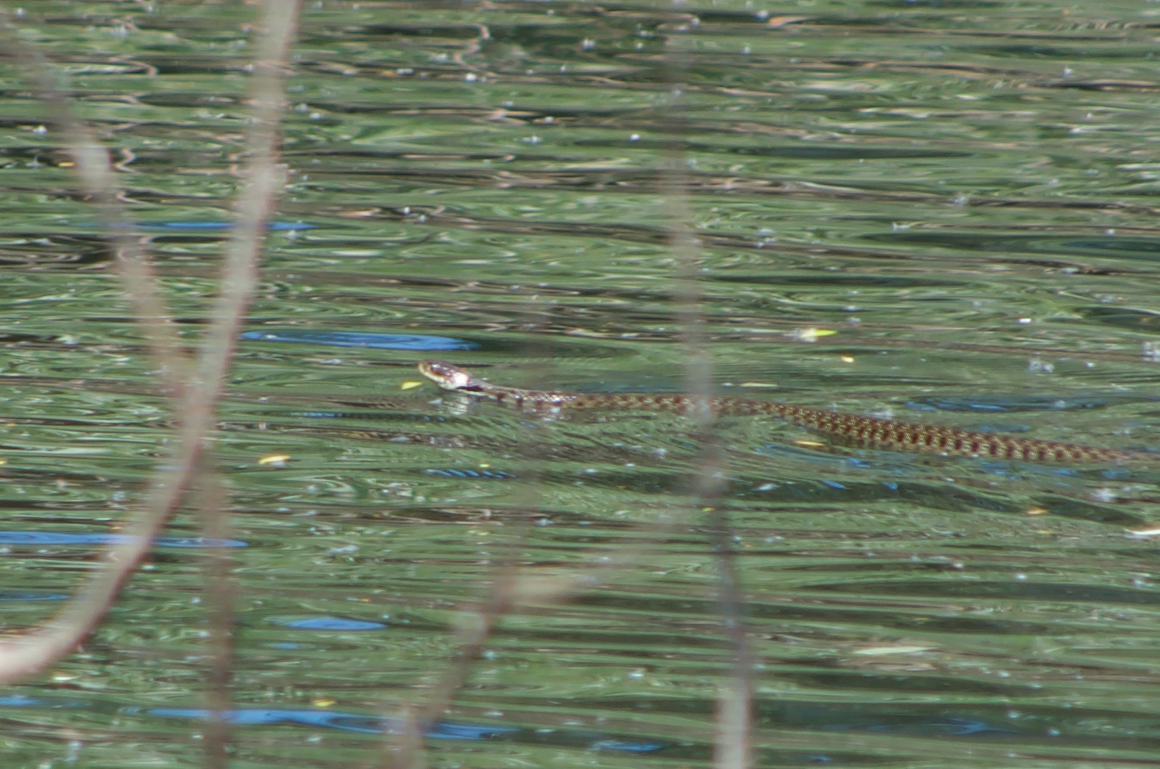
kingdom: Animalia
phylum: Chordata
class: Squamata
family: Colubridae
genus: Natrix
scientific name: Natrix helvetica
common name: Banded grass snake
